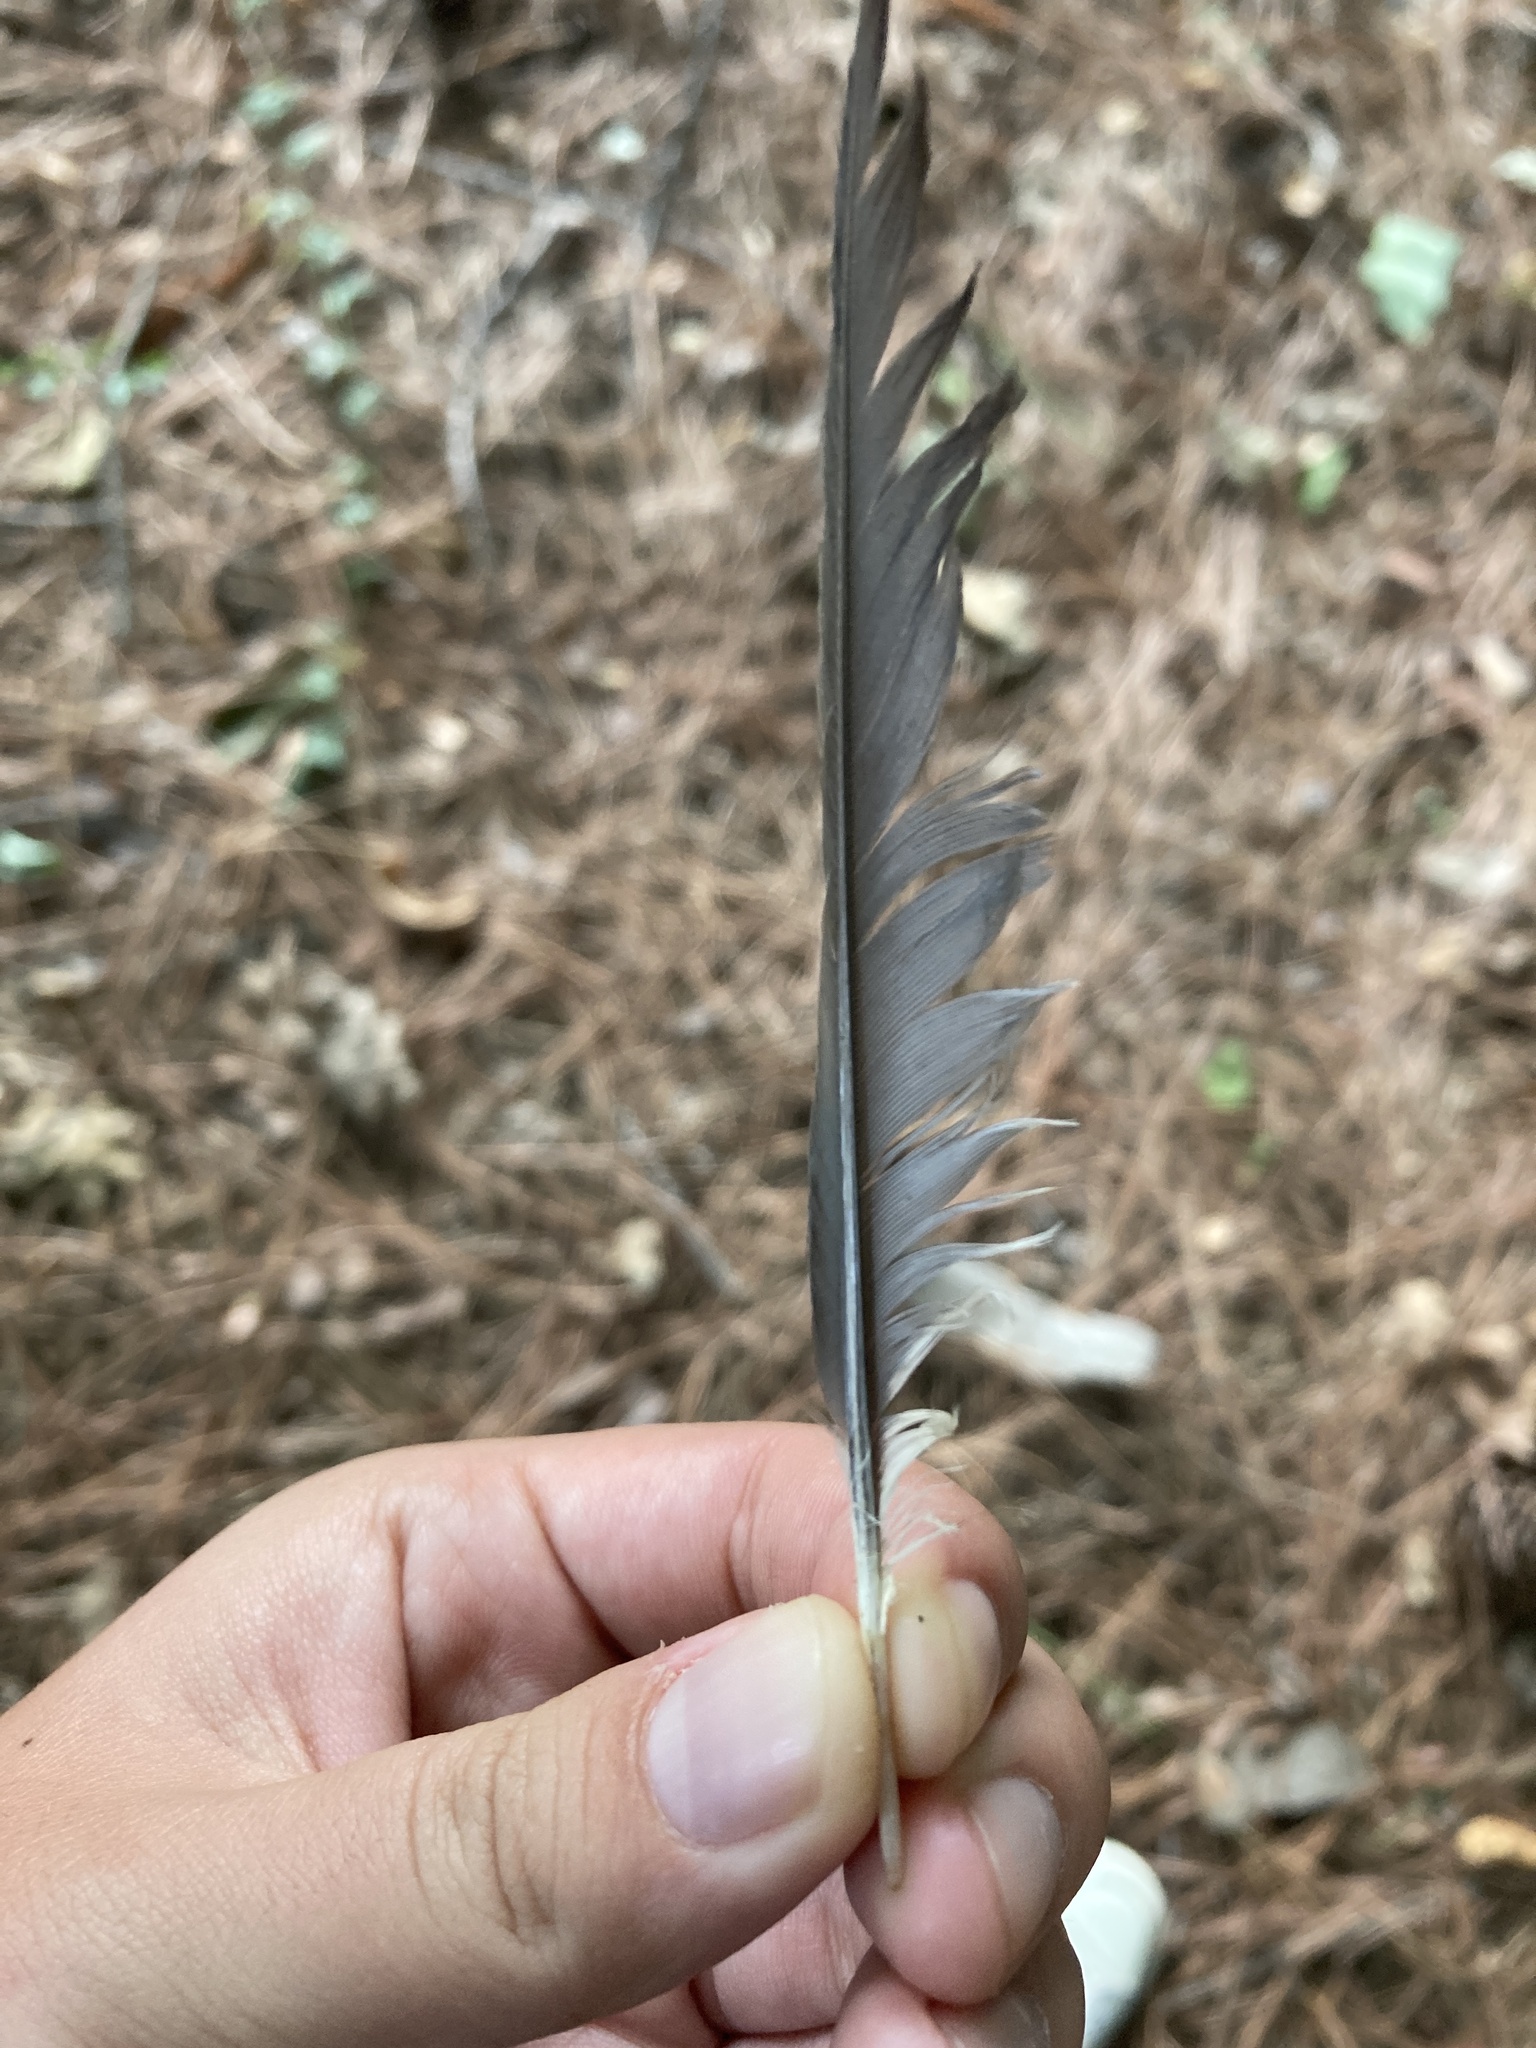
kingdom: Animalia
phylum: Chordata
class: Aves
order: Passeriformes
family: Corvidae
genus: Cyanocitta
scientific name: Cyanocitta cristata
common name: Blue jay
